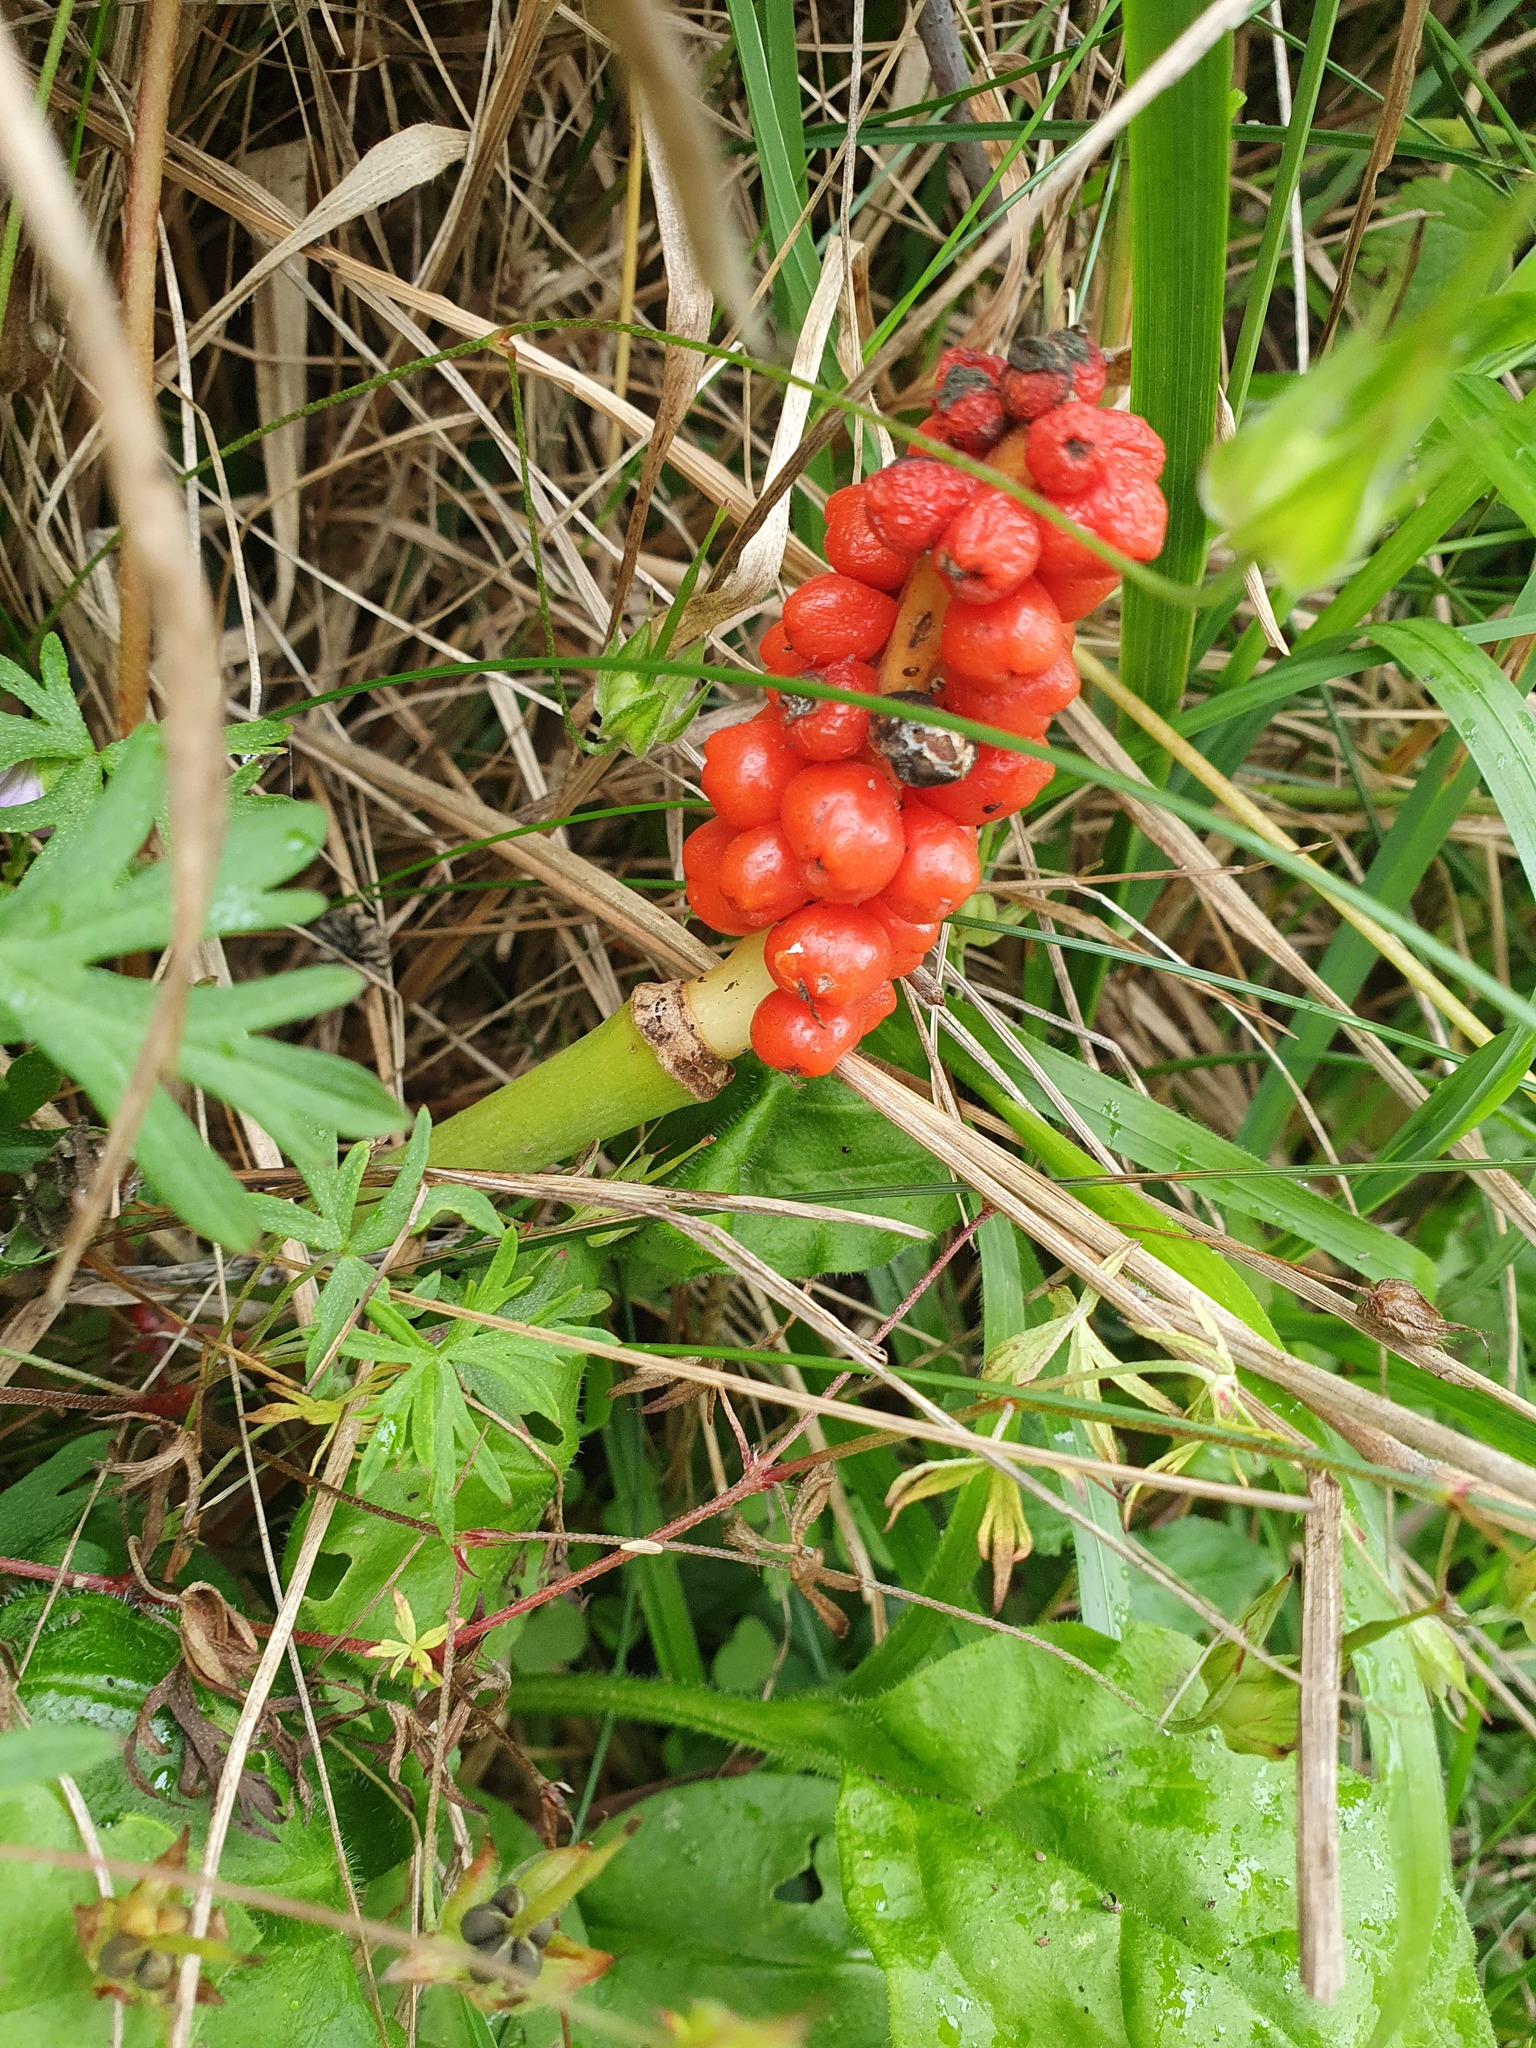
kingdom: Plantae
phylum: Tracheophyta
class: Liliopsida
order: Alismatales
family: Araceae
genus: Arum
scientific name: Arum maculatum
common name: Lords-and-ladies
